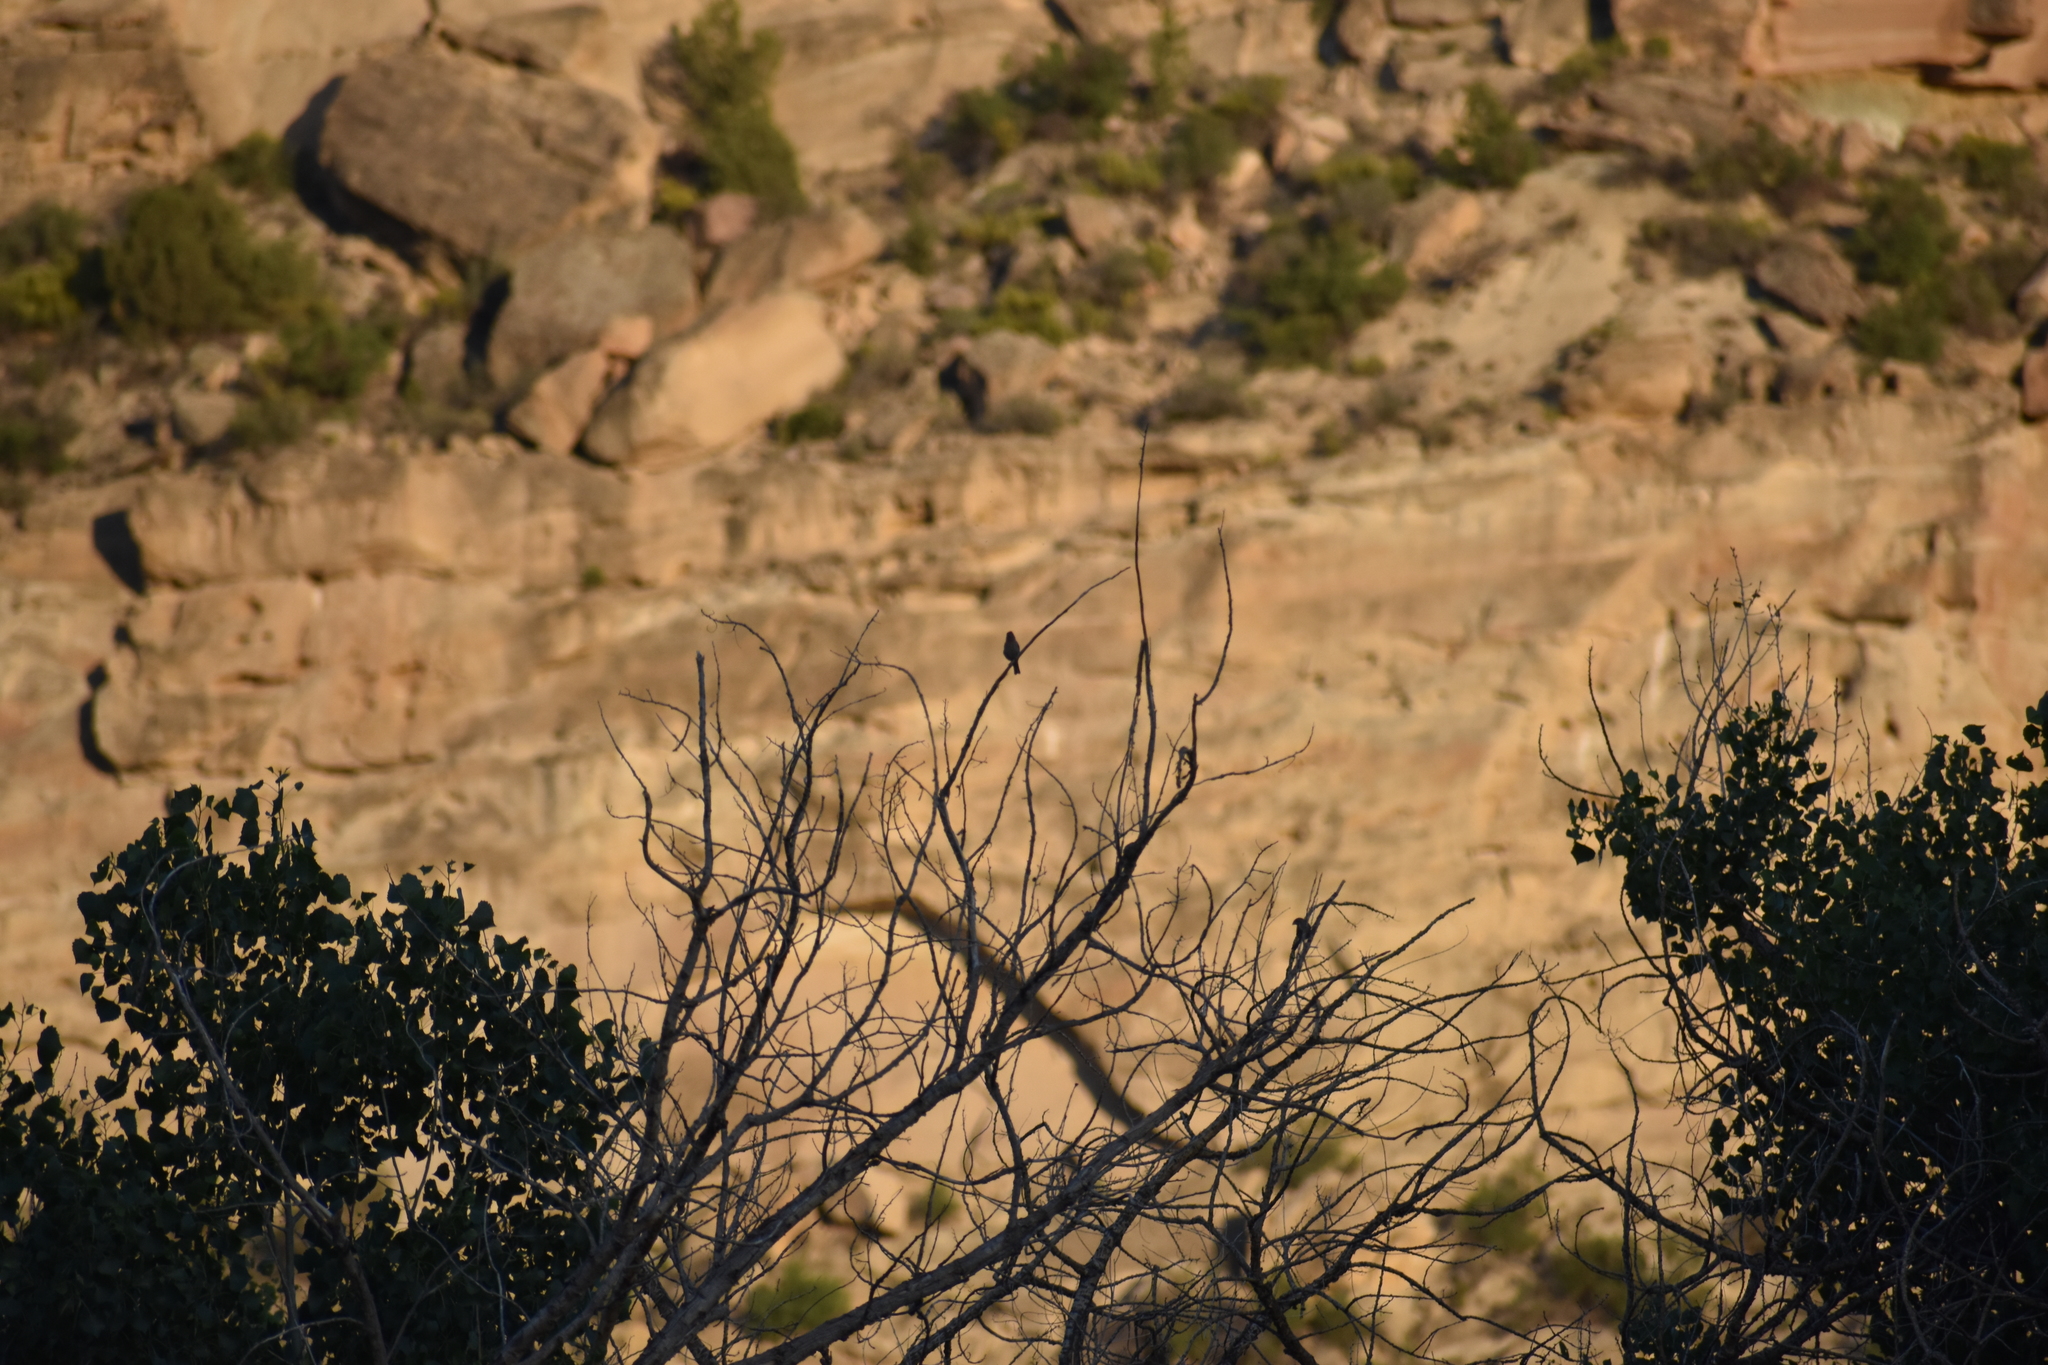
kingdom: Animalia
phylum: Chordata
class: Aves
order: Passeriformes
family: Fringillidae
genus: Haemorhous
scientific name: Haemorhous mexicanus
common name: House finch
